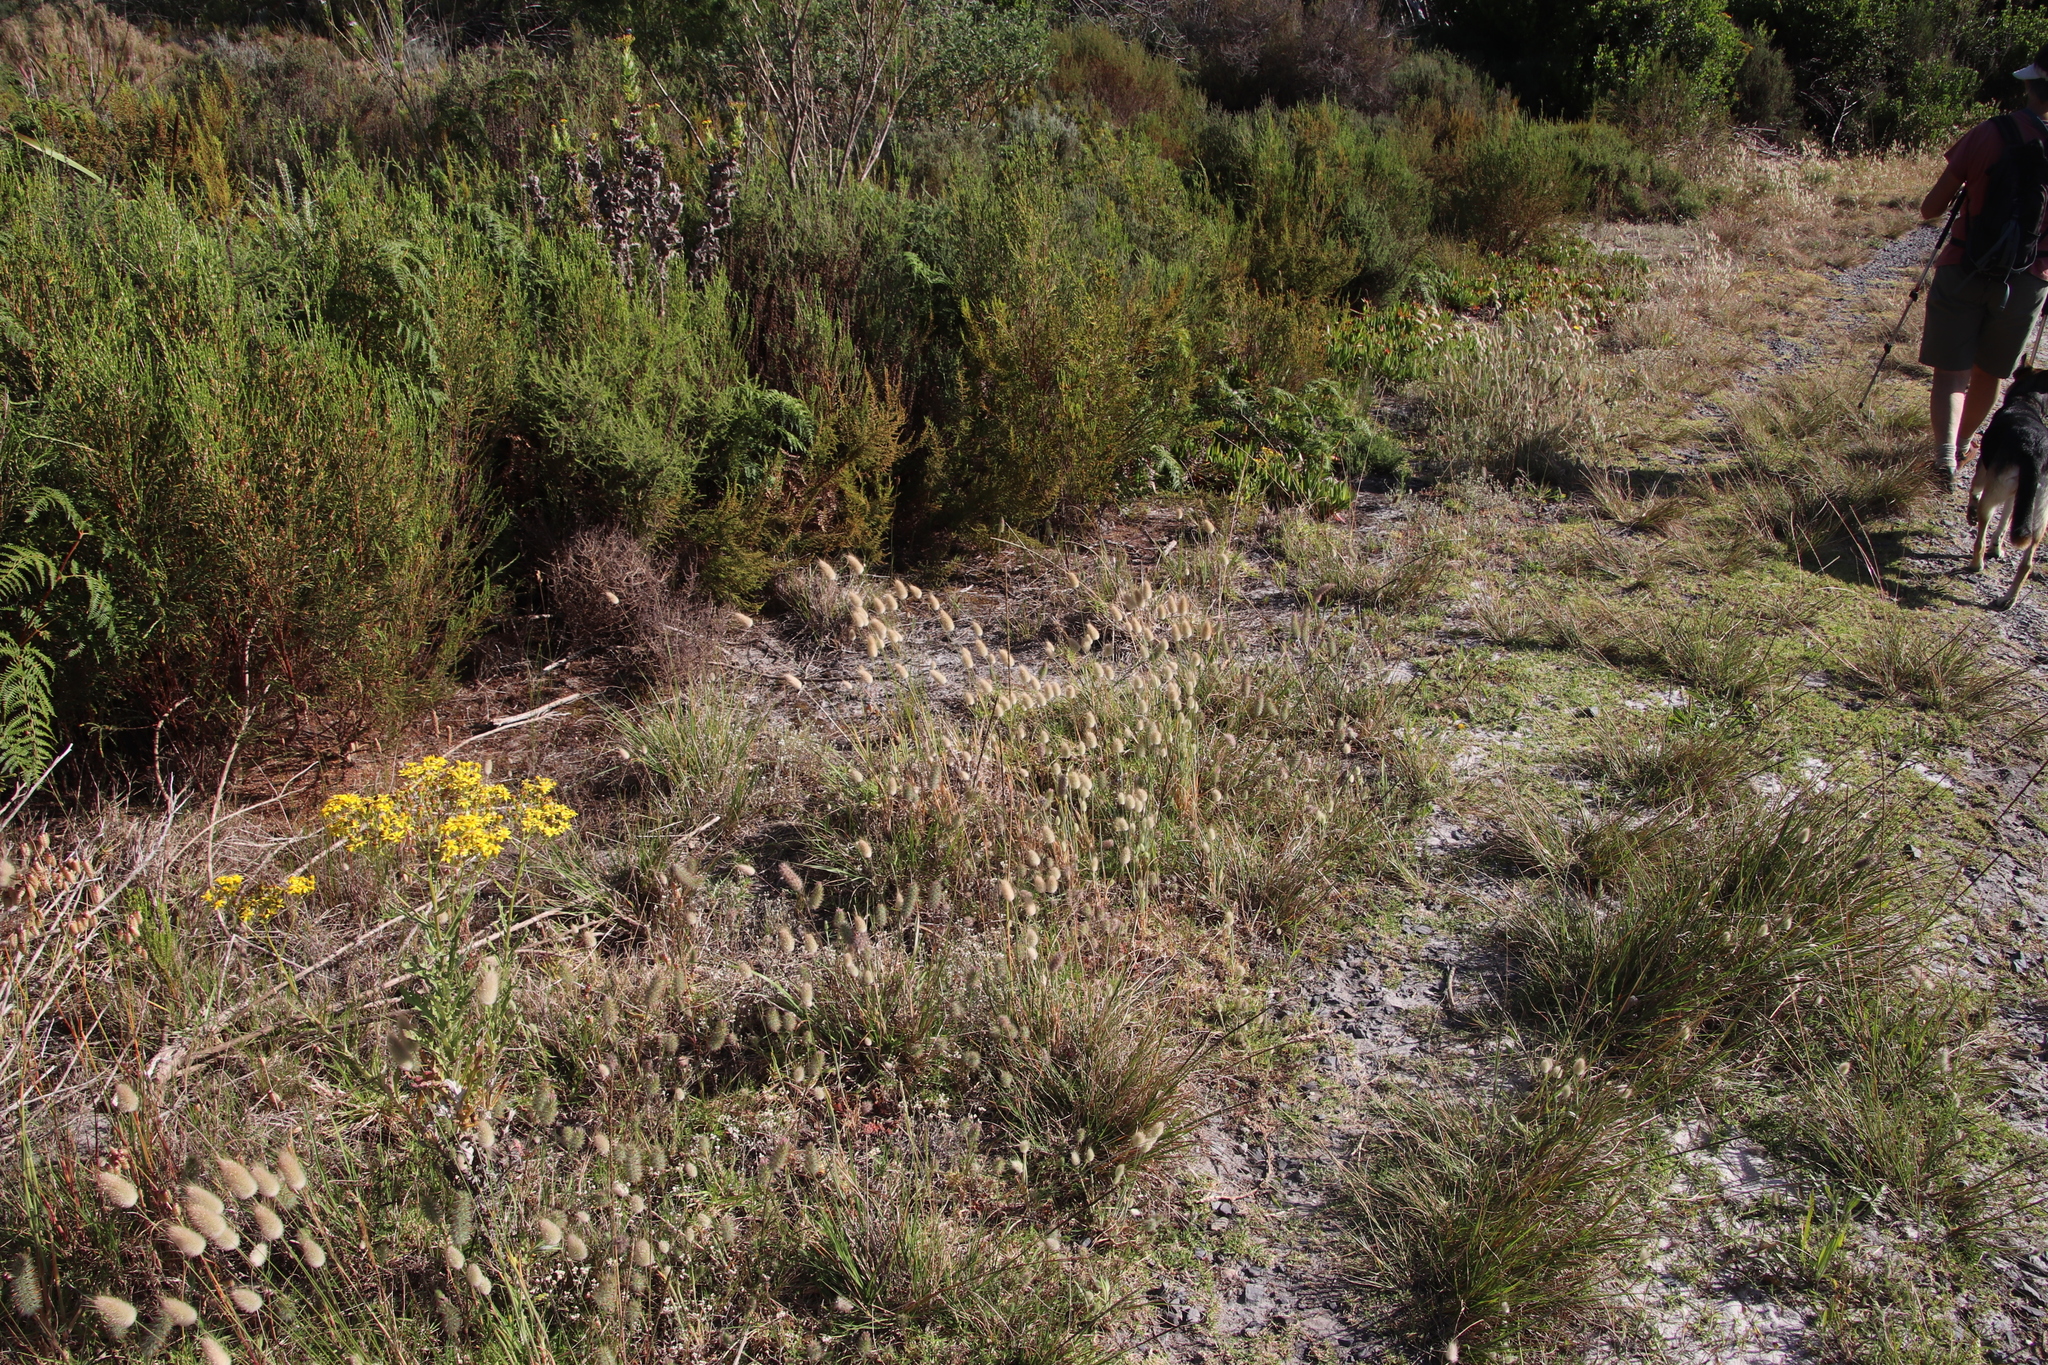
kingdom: Plantae
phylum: Tracheophyta
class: Liliopsida
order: Poales
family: Poaceae
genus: Lagurus
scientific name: Lagurus ovatus
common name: Hare's-tail
